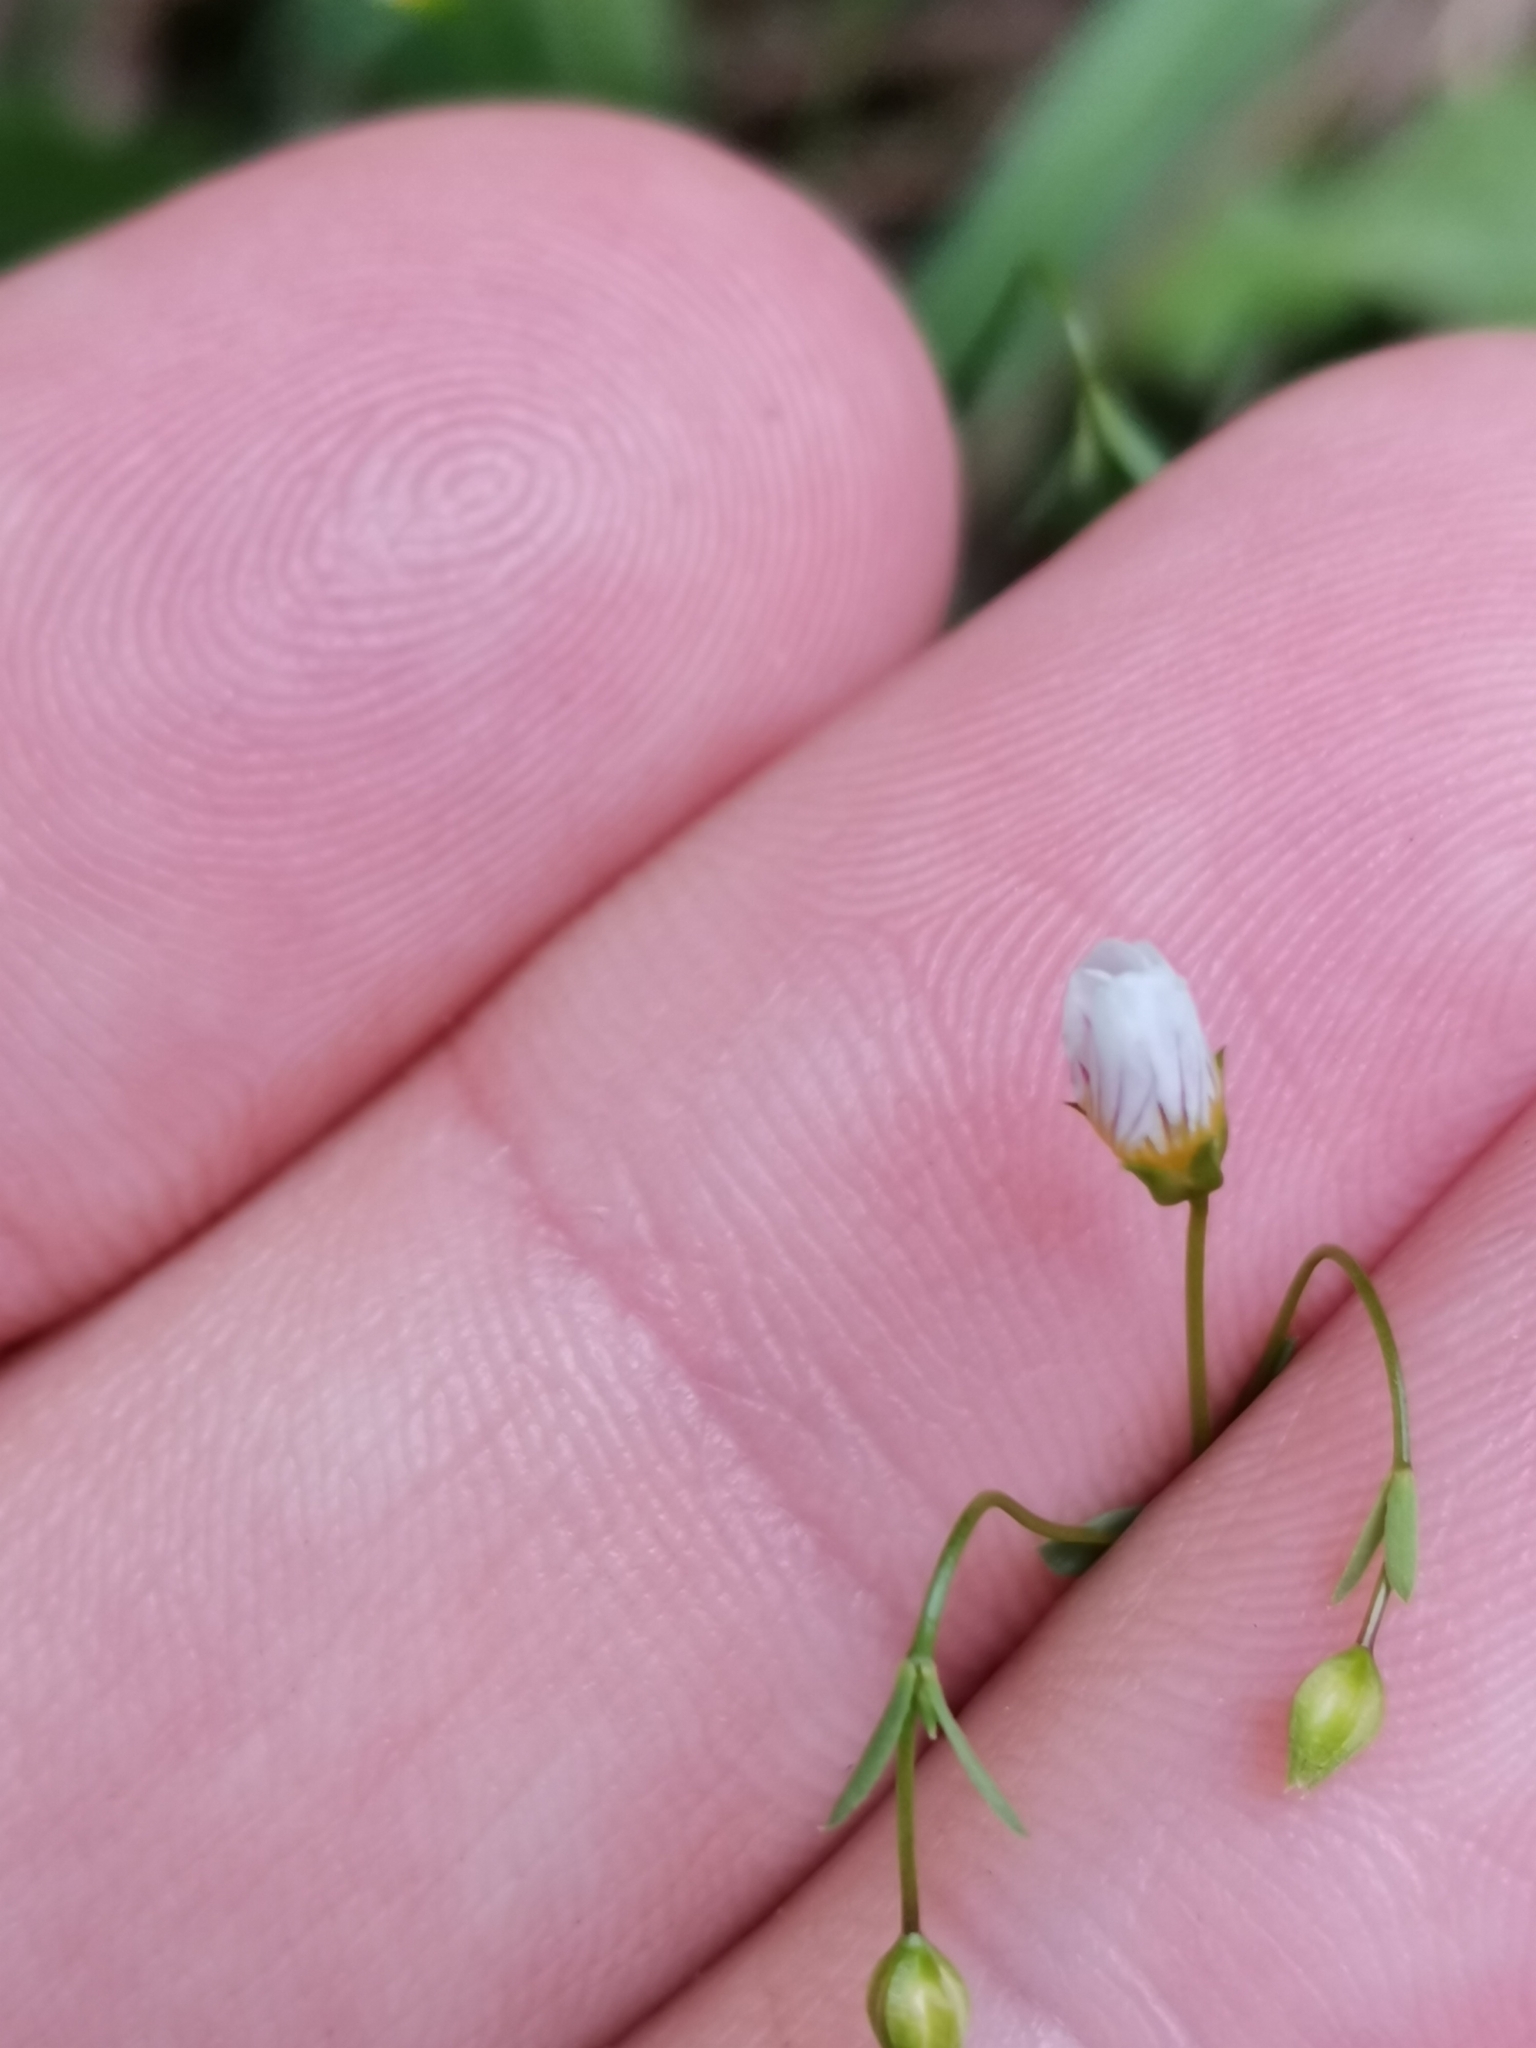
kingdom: Plantae
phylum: Tracheophyta
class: Magnoliopsida
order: Malpighiales
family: Linaceae
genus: Linum
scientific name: Linum catharticum
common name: Fairy flax
